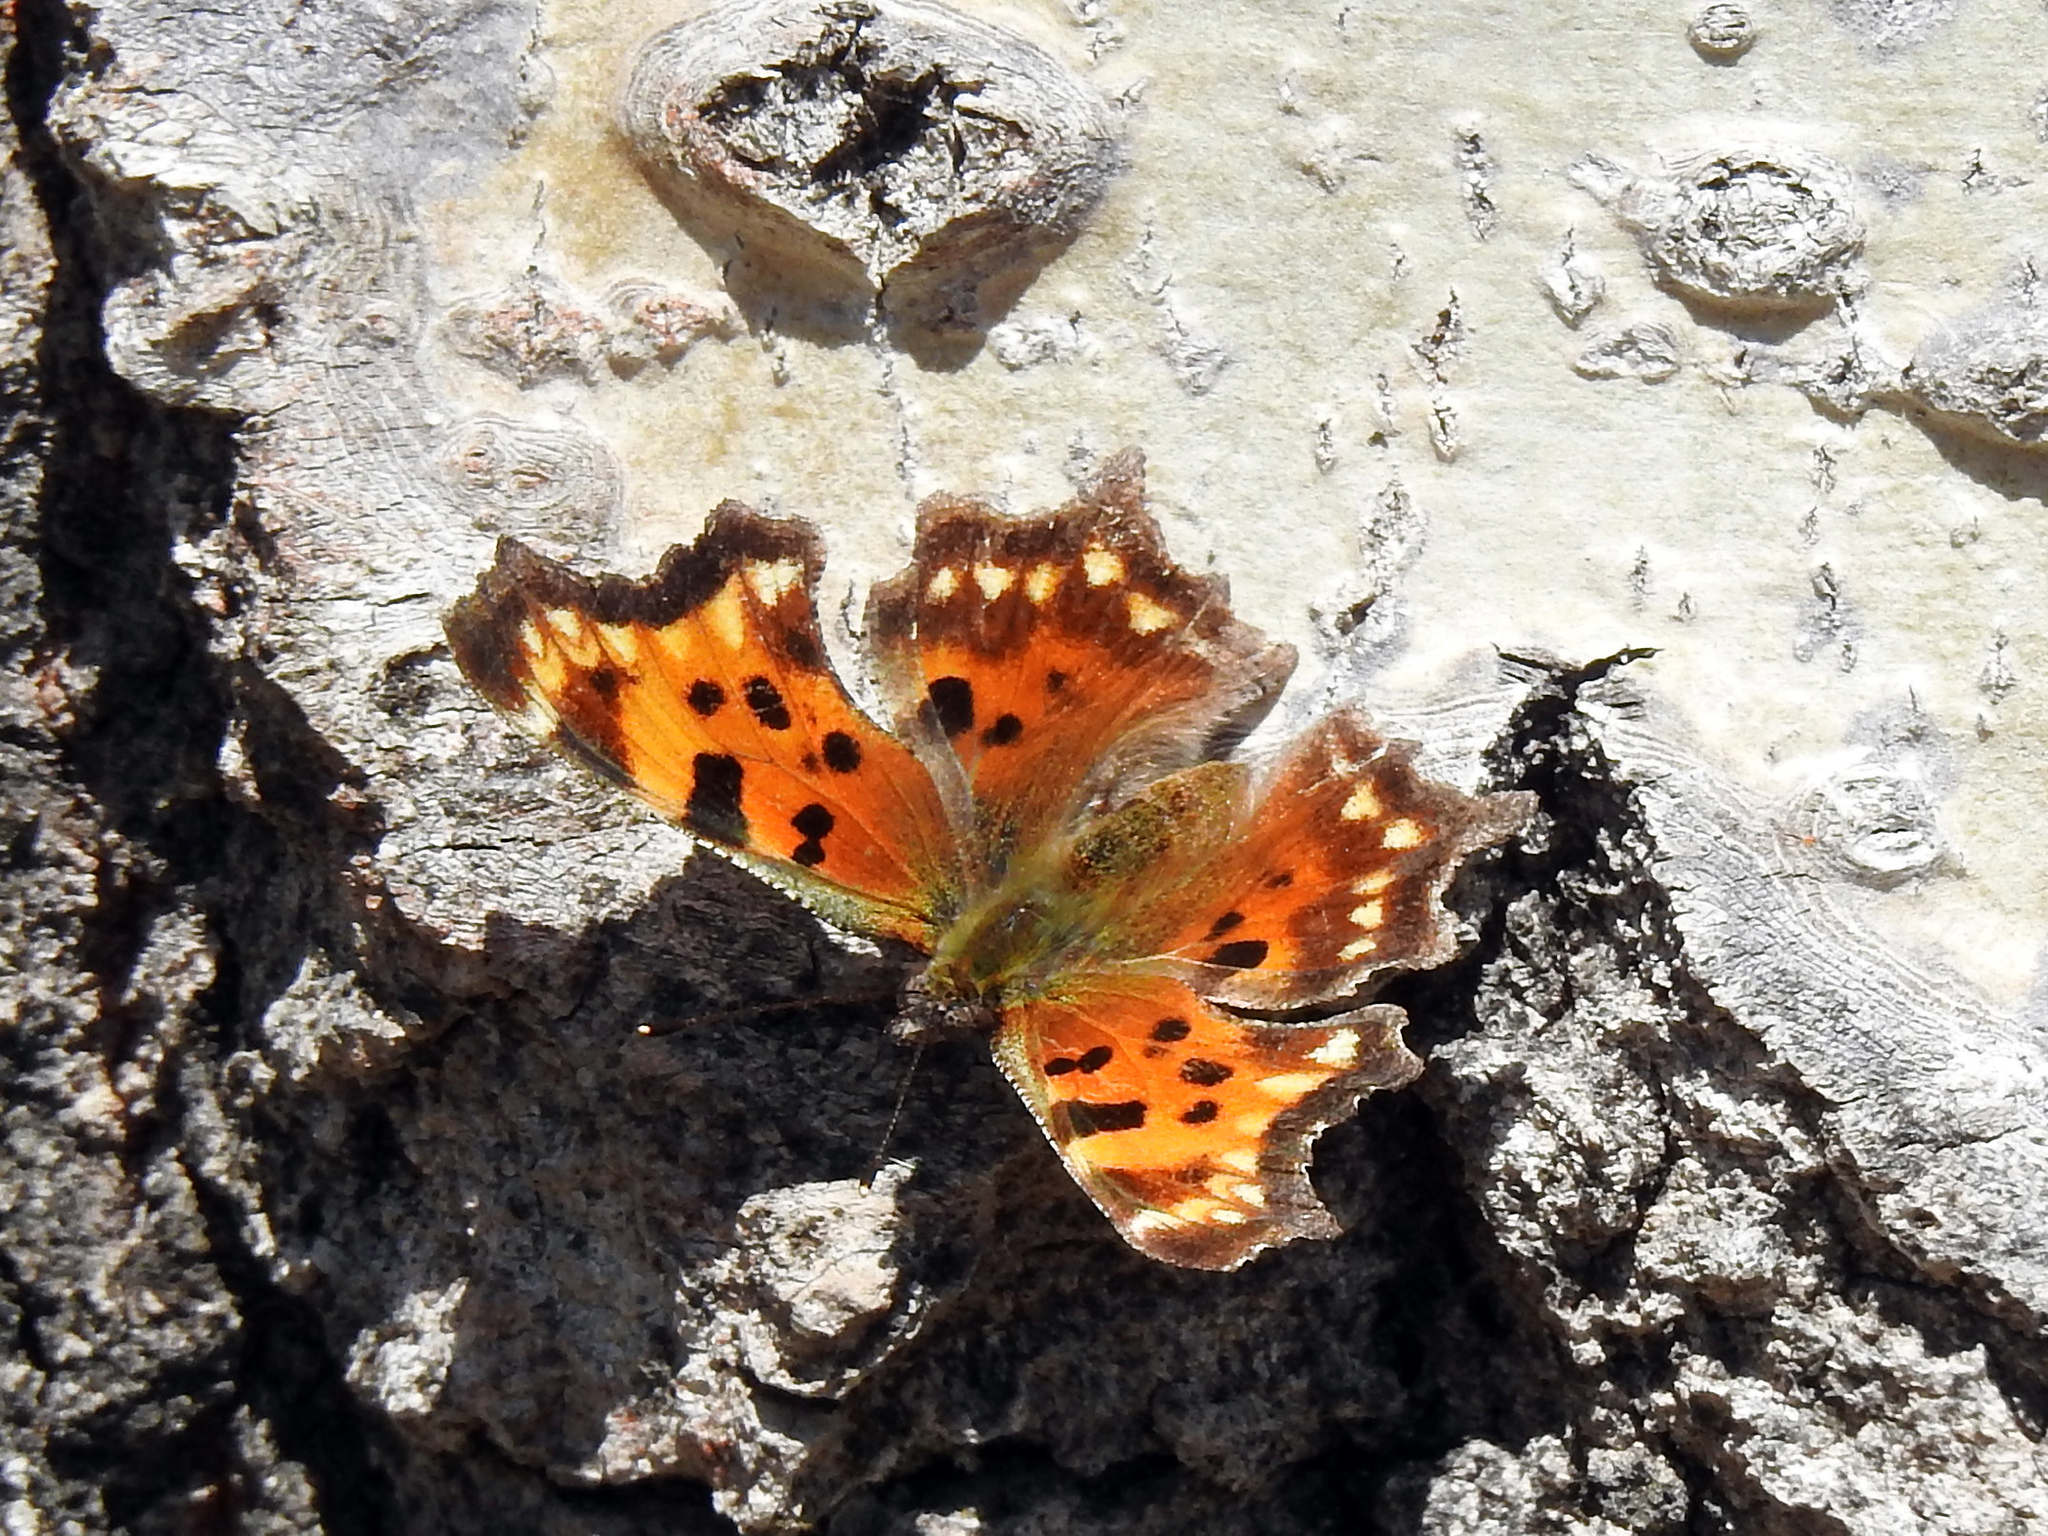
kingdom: Animalia
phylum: Arthropoda
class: Insecta
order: Lepidoptera
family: Nymphalidae
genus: Polygonia
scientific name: Polygonia faunus
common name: Green comma
